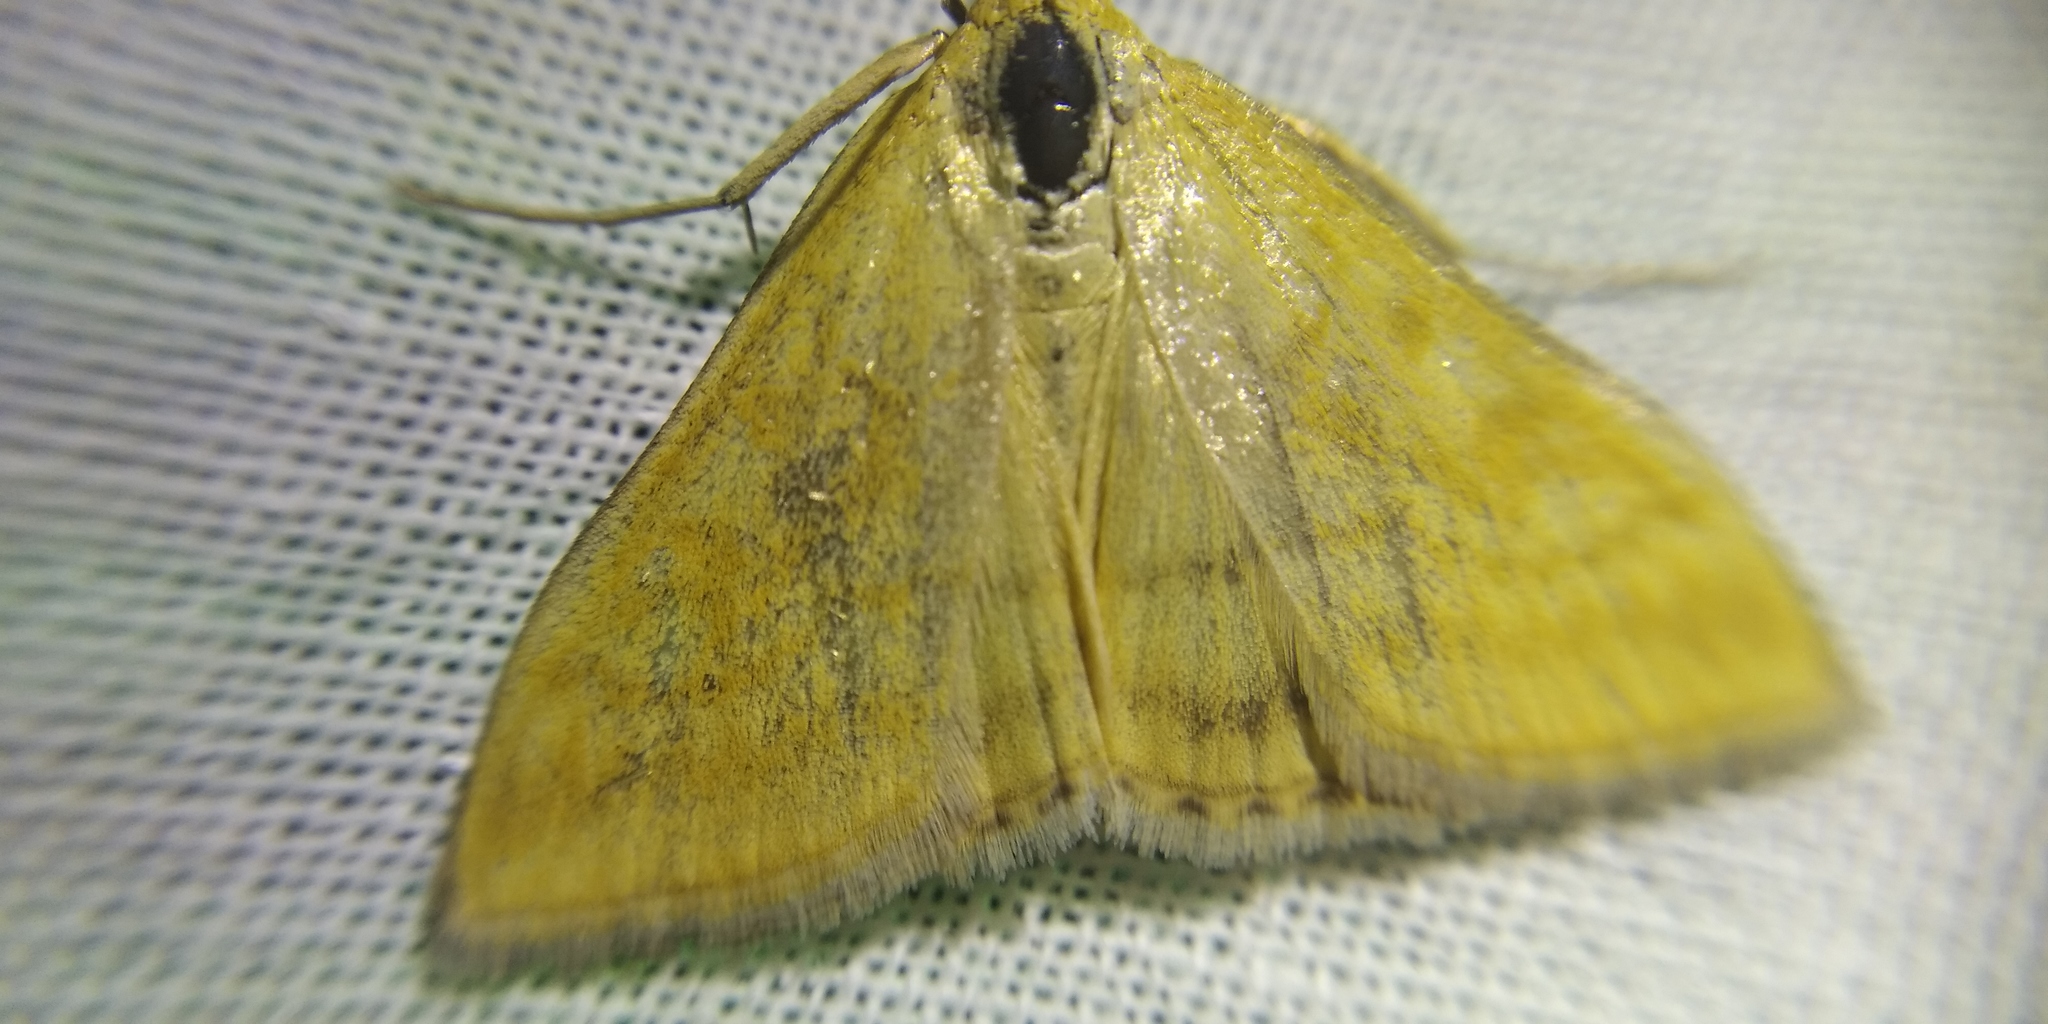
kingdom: Animalia
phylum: Arthropoda
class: Insecta
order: Lepidoptera
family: Crambidae
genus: Sitochroa
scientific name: Sitochroa verticalis
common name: Lesser pearl
